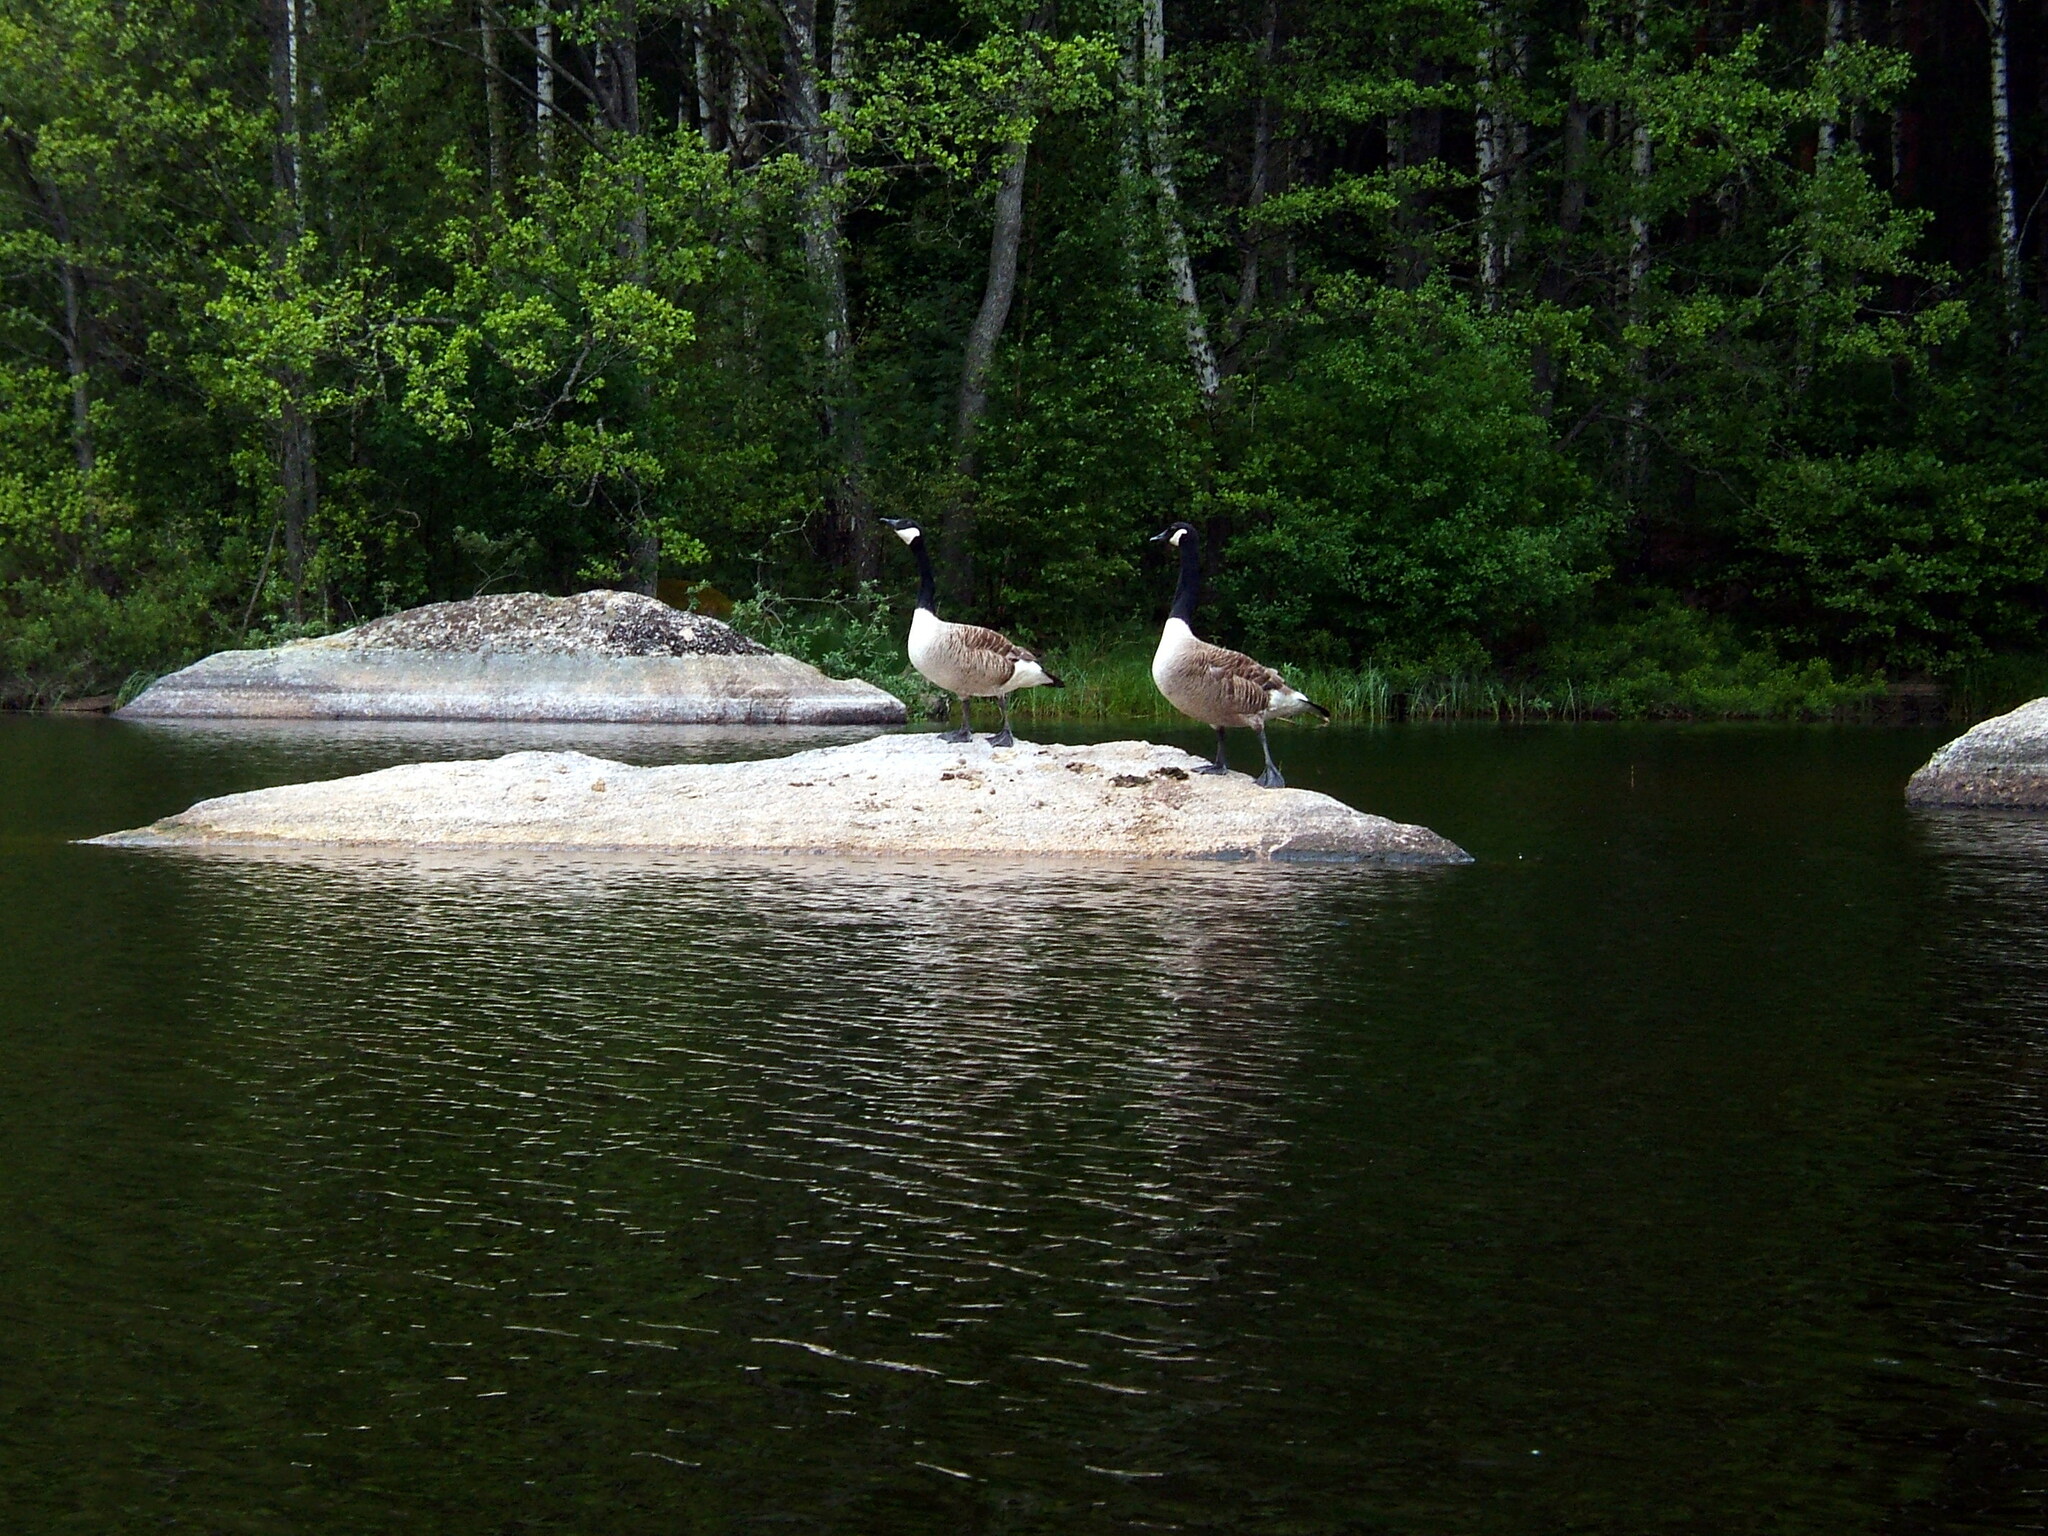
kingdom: Animalia
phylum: Chordata
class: Aves
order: Anseriformes
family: Anatidae
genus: Branta
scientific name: Branta canadensis
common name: Canada goose
